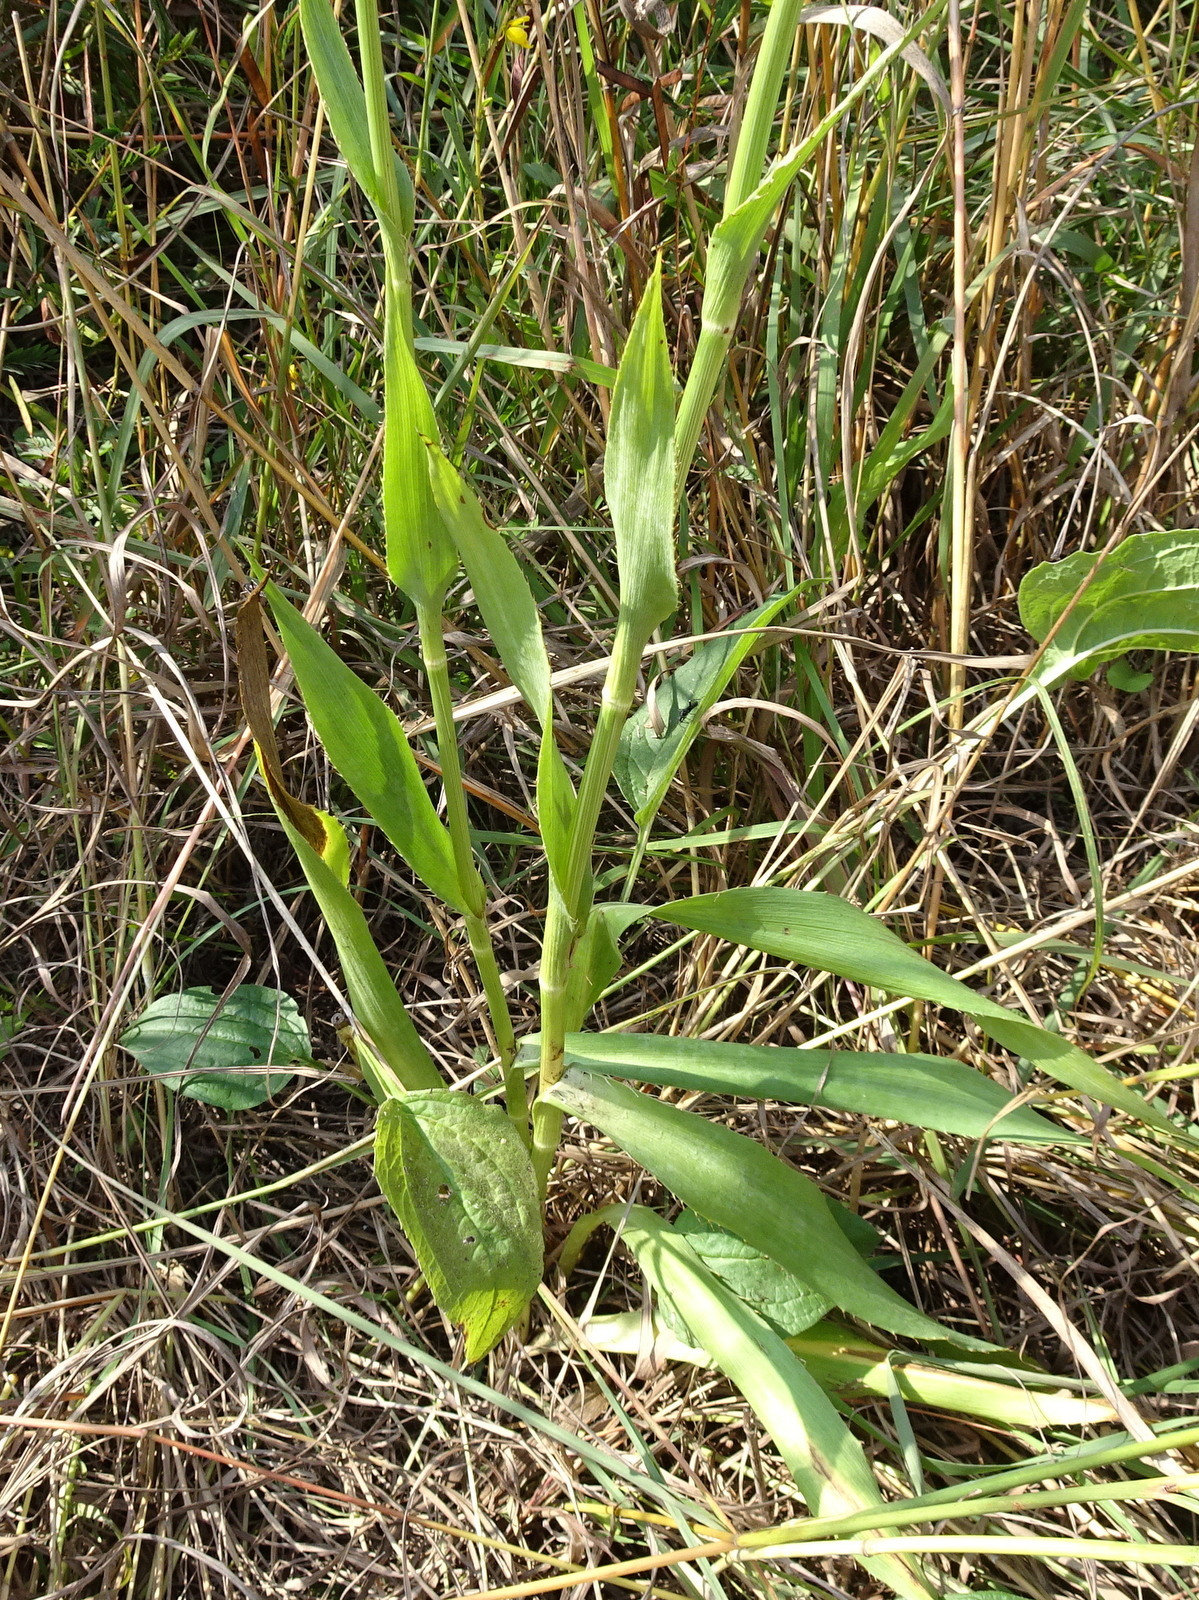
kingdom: Plantae
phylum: Tracheophyta
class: Magnoliopsida
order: Apiales
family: Apiaceae
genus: Eryngium
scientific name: Eryngium yuccifolium
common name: Button eryngo
